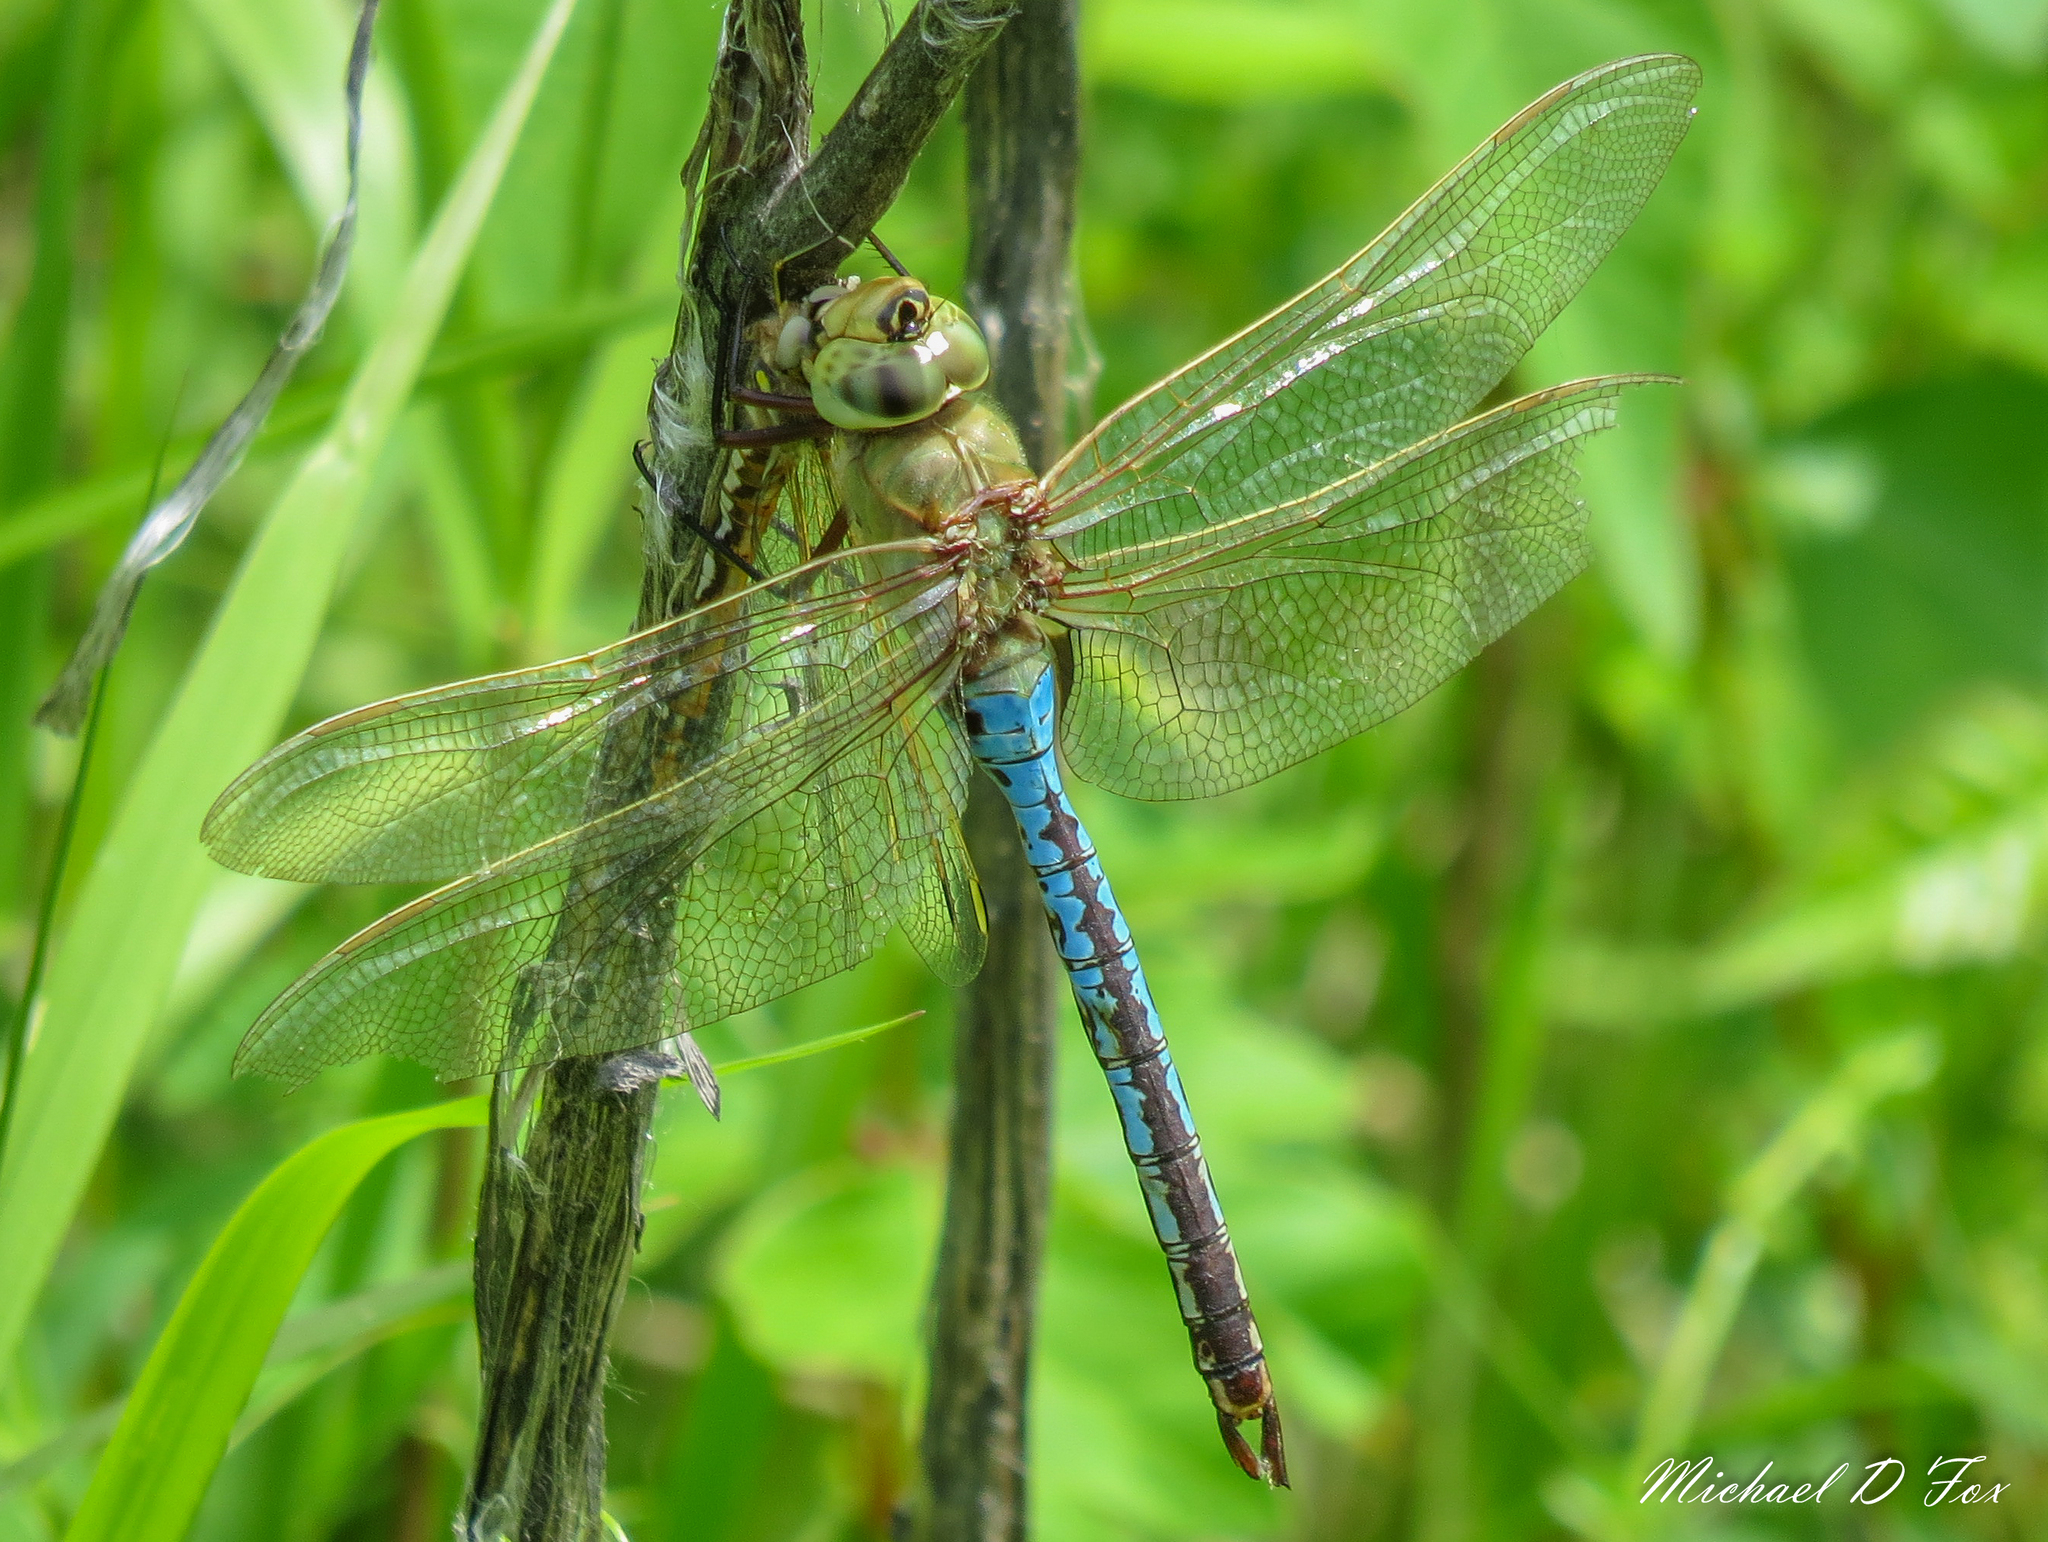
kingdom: Animalia
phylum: Arthropoda
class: Insecta
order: Odonata
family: Aeshnidae
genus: Anax
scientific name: Anax junius
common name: Common green darner
